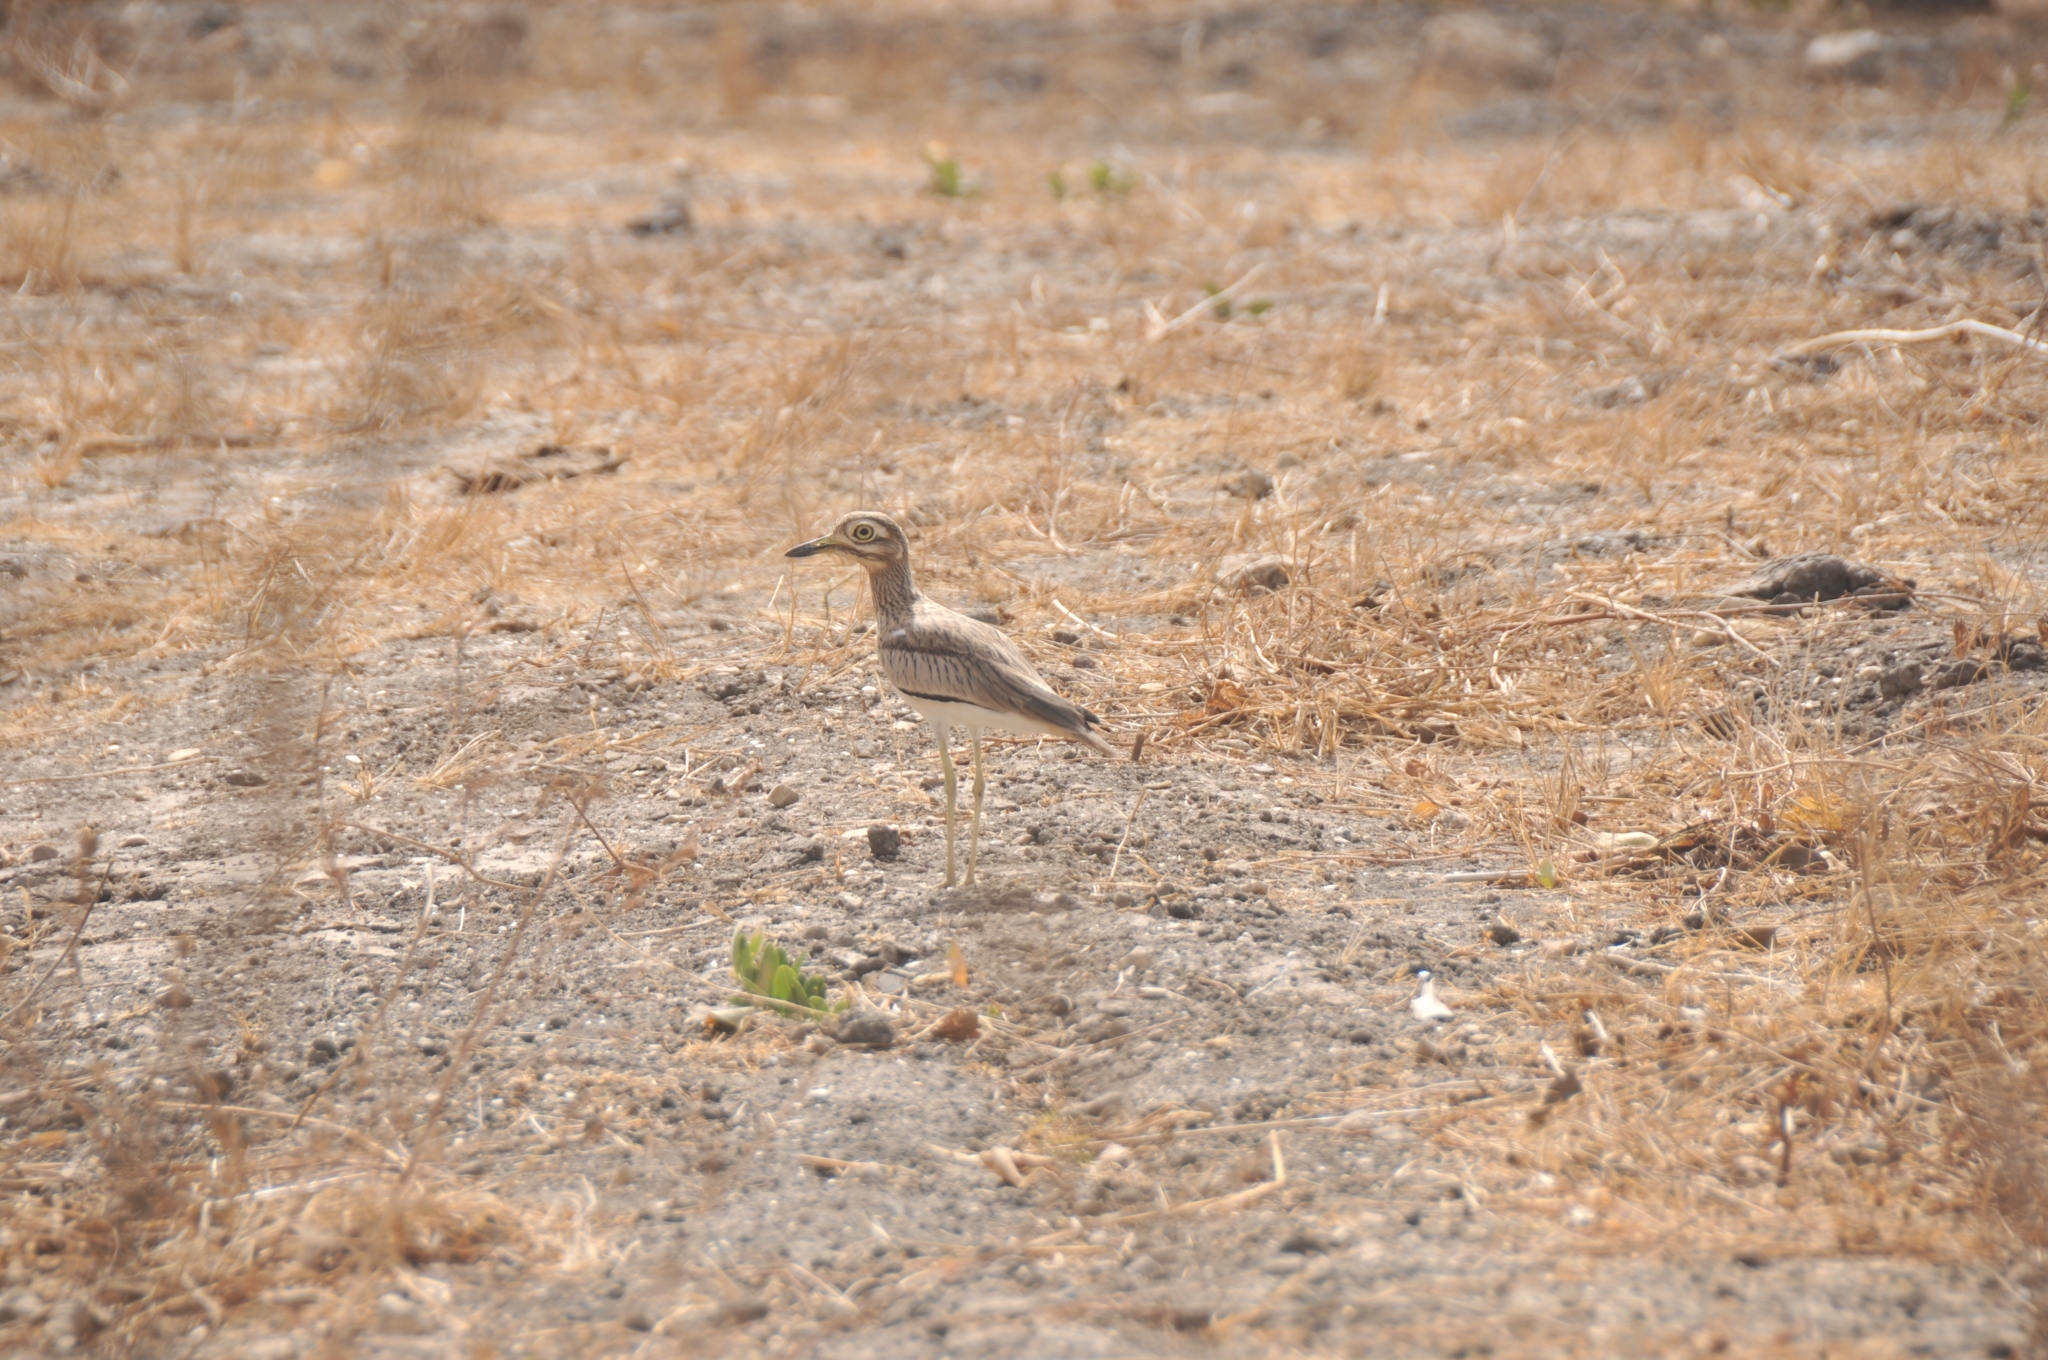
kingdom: Animalia
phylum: Chordata
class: Aves
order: Charadriiformes
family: Burhinidae
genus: Burhinus
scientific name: Burhinus senegalensis
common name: Senegal thick-knee
